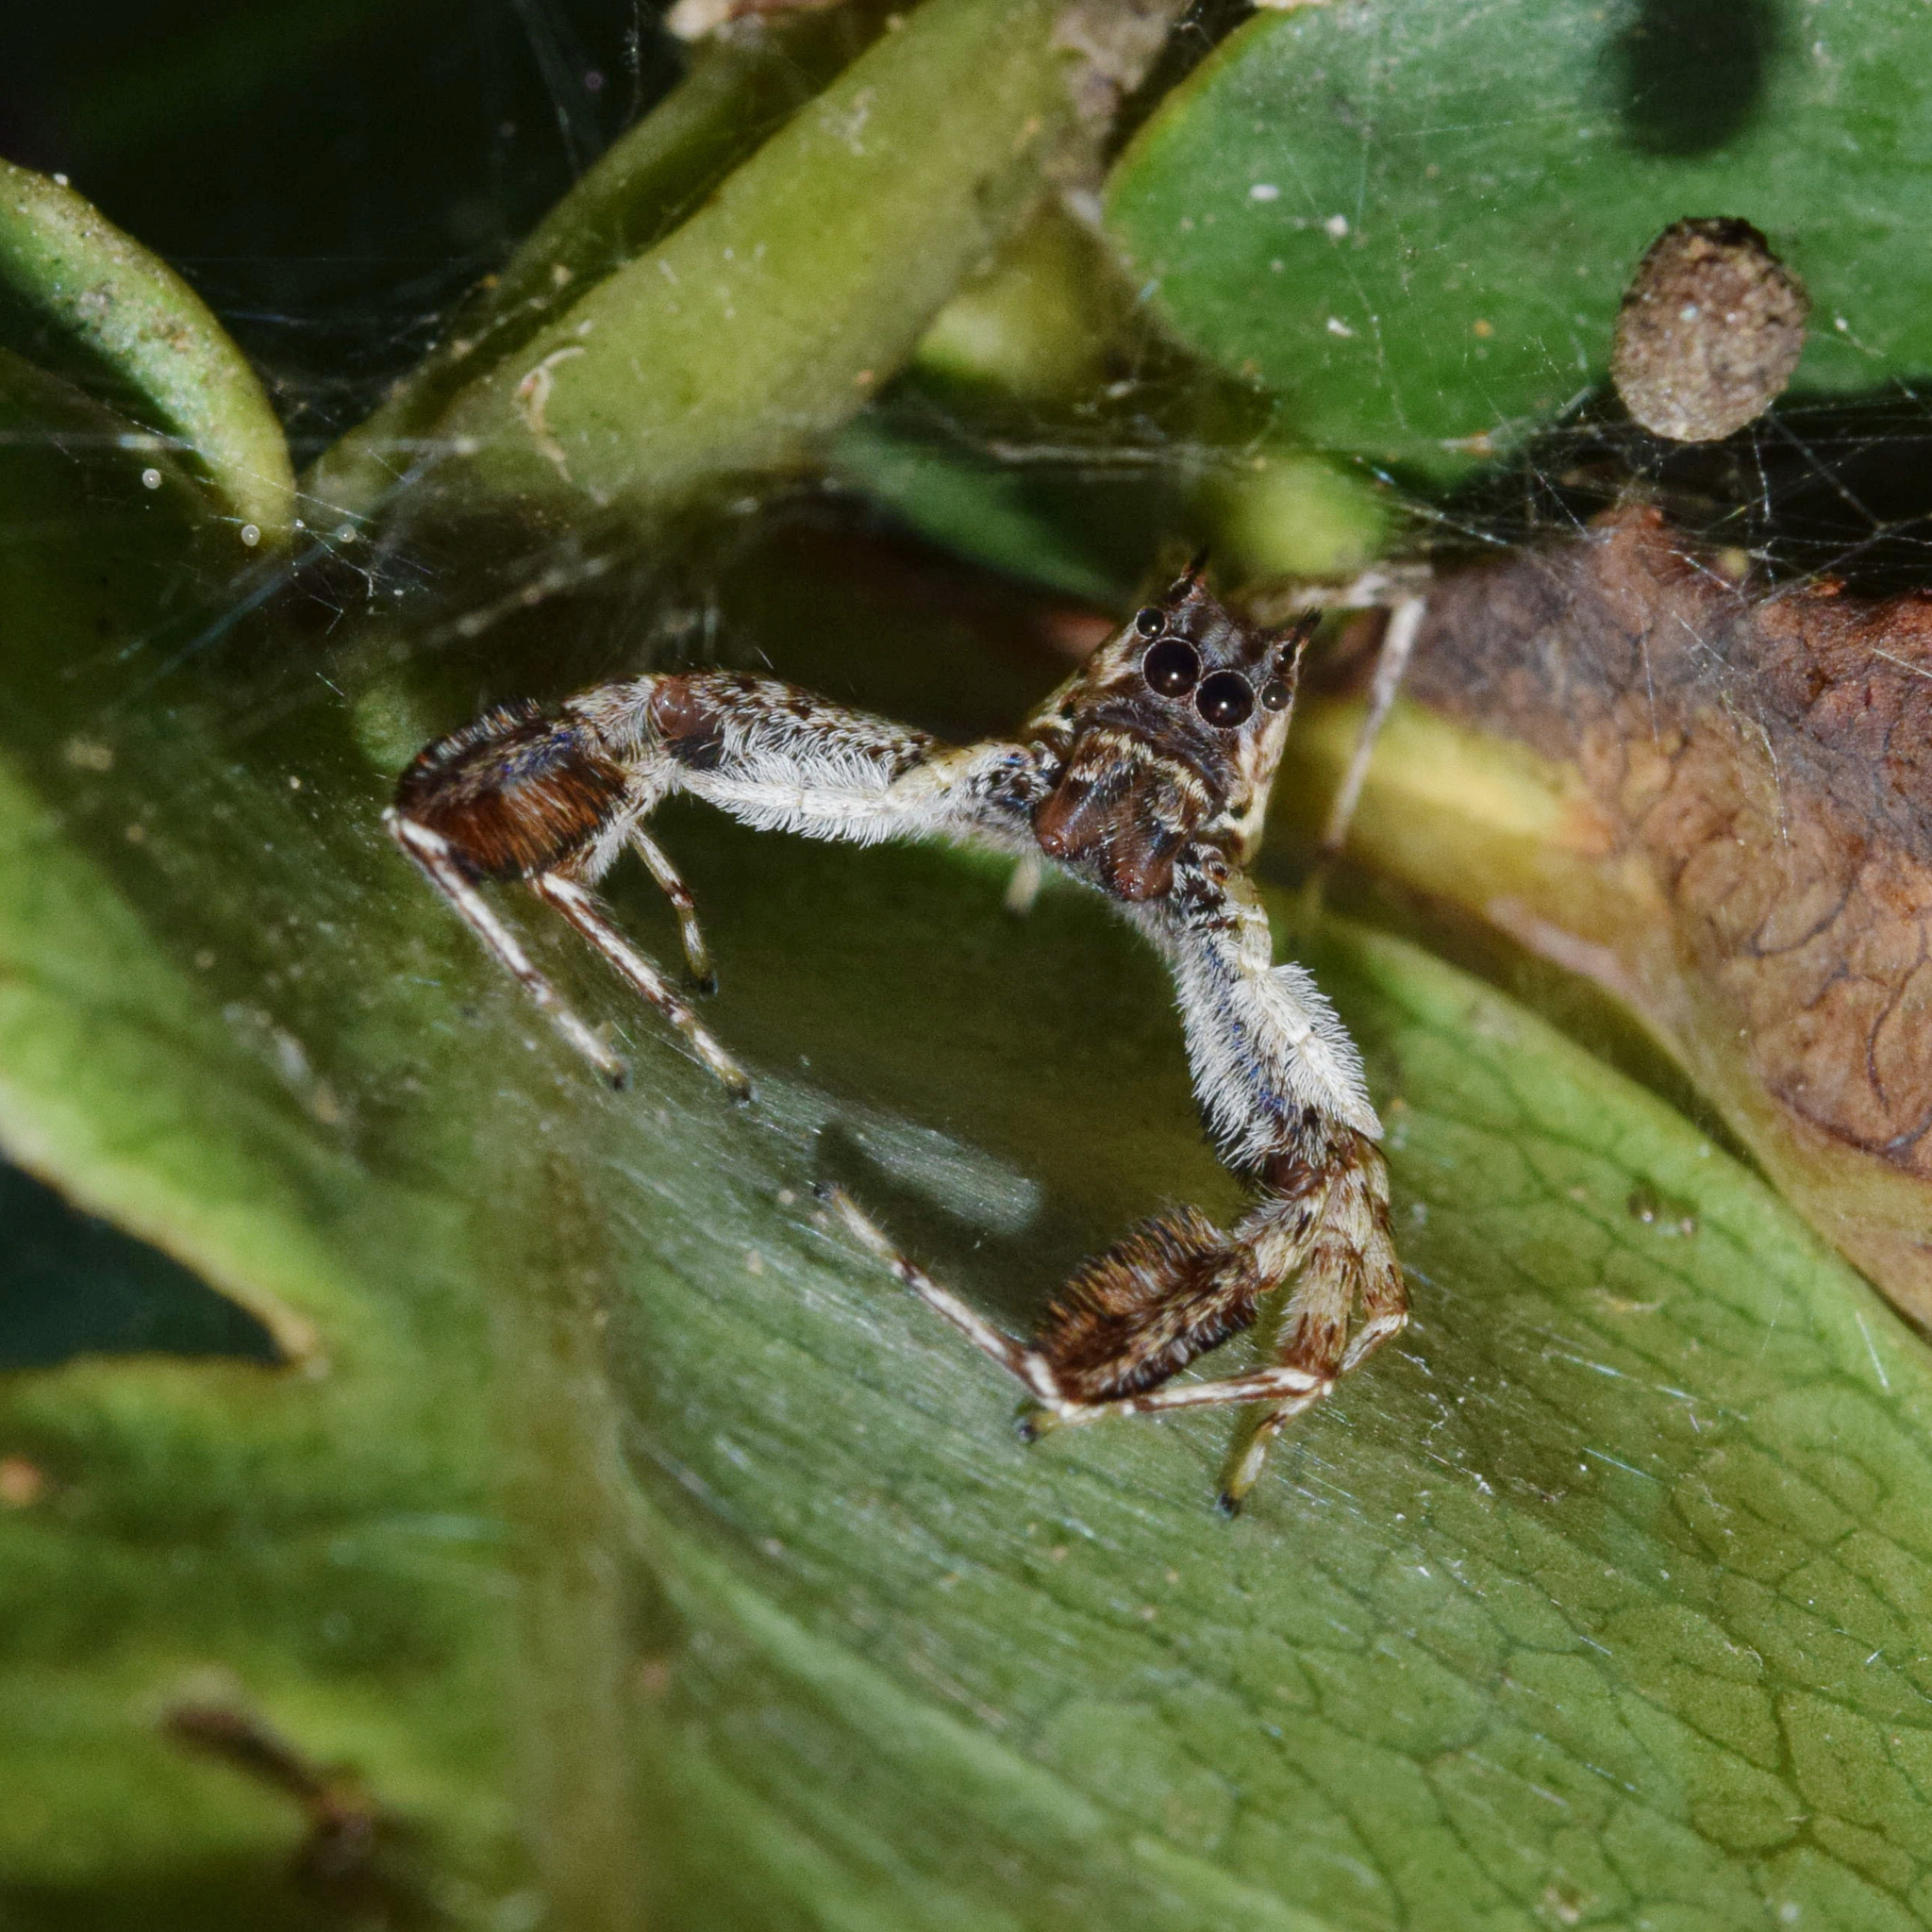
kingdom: Animalia
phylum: Arthropoda
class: Arachnida
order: Araneae
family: Salticidae
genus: Veissella
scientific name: Veissella durbani
